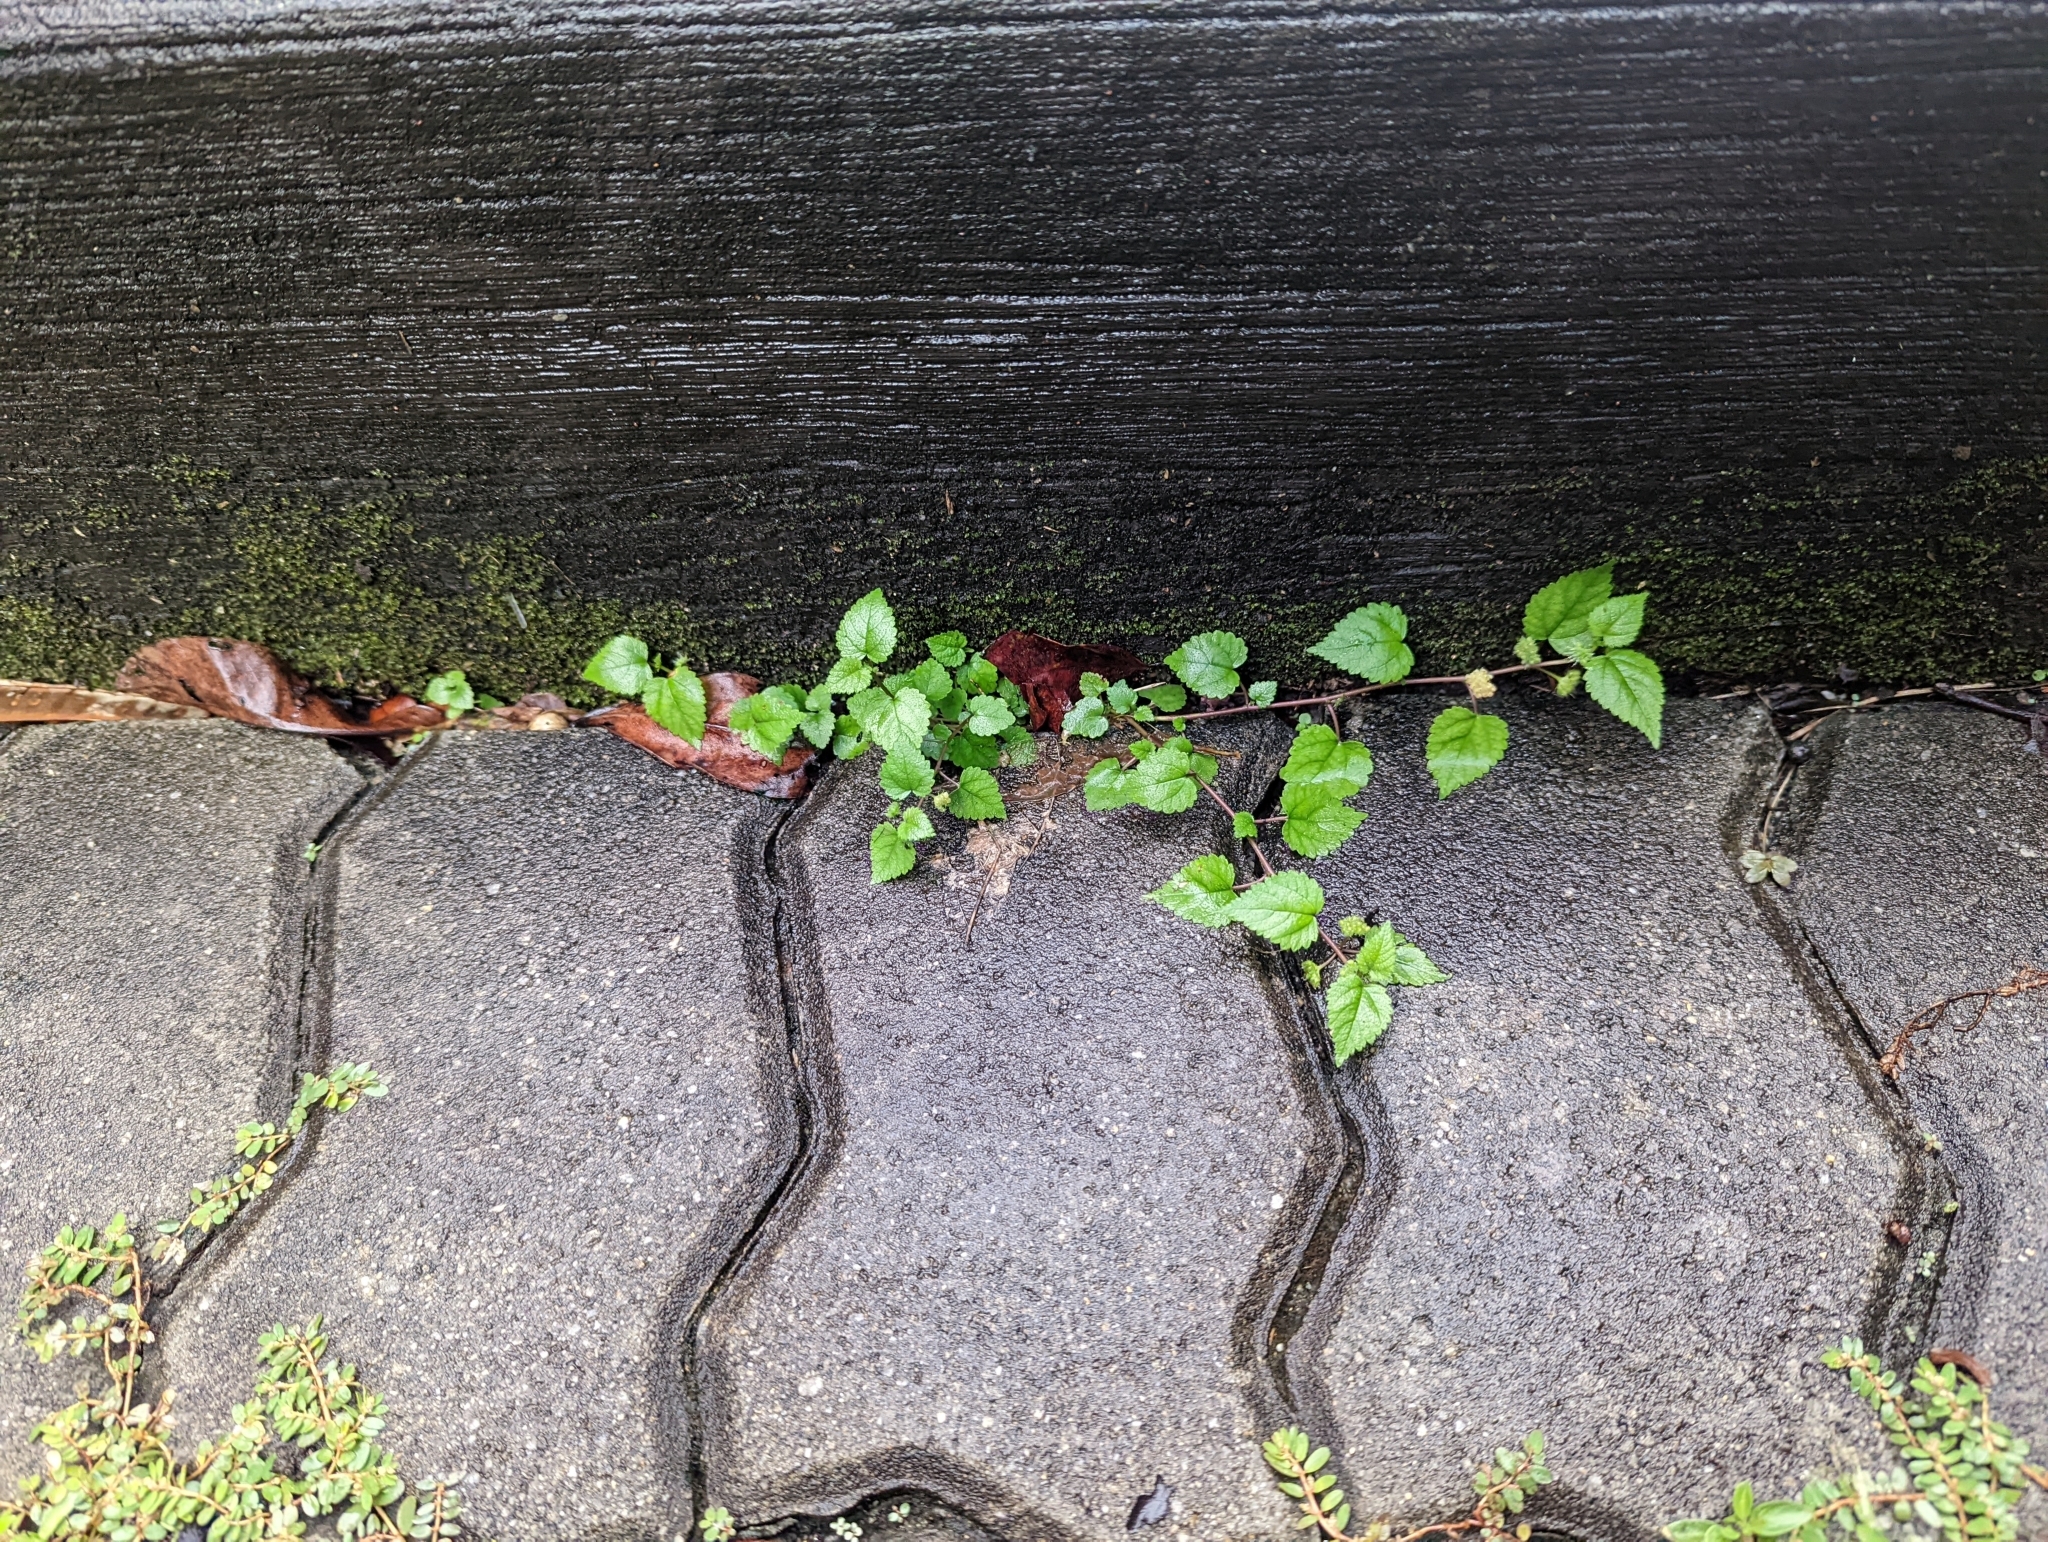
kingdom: Plantae
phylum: Tracheophyta
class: Magnoliopsida
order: Rosales
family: Moraceae
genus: Fatoua
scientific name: Fatoua villosa
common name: Hairy crabweed
